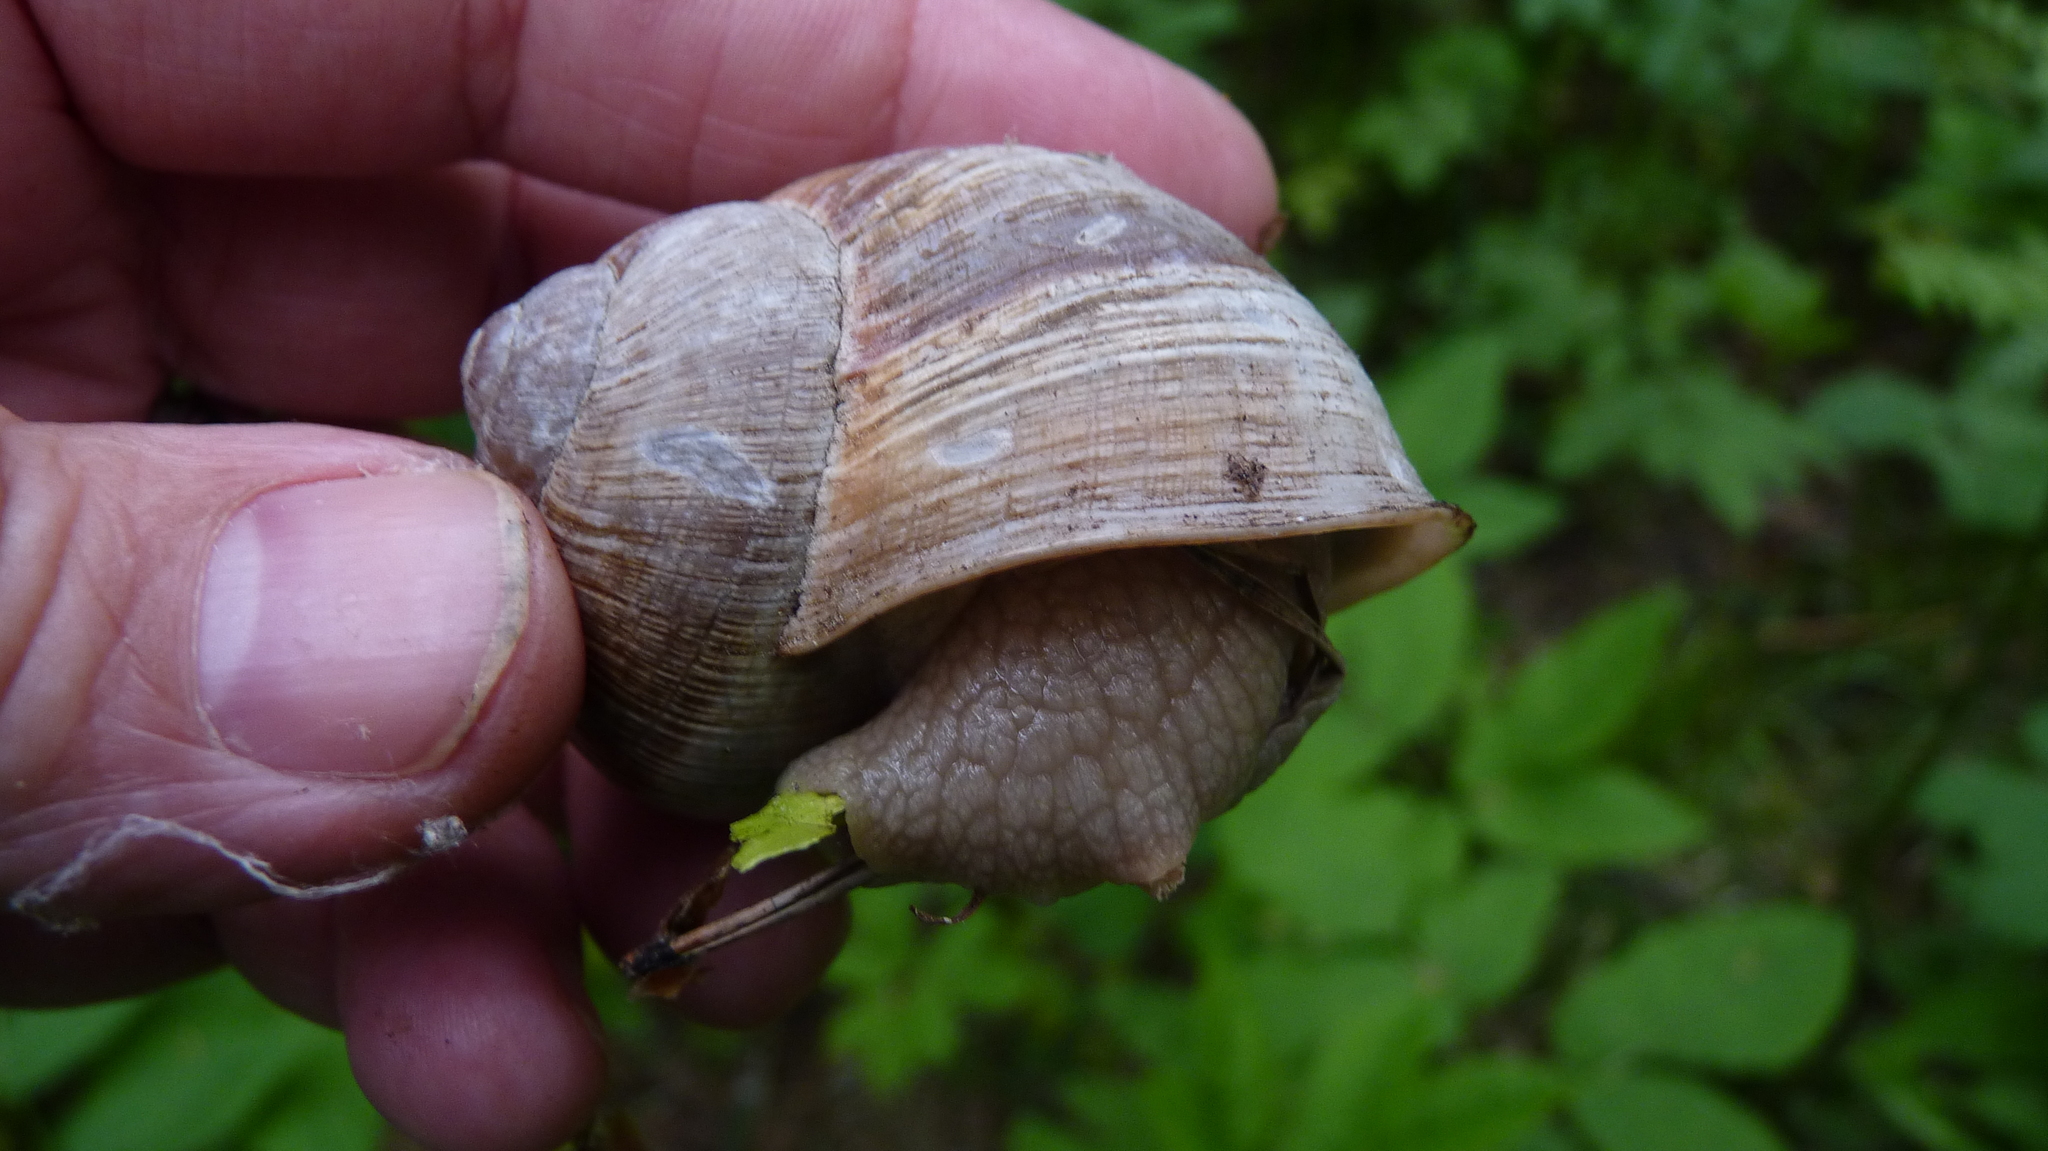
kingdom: Animalia
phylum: Mollusca
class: Gastropoda
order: Stylommatophora
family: Helicidae
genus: Helix
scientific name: Helix pomatia
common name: Roman snail
